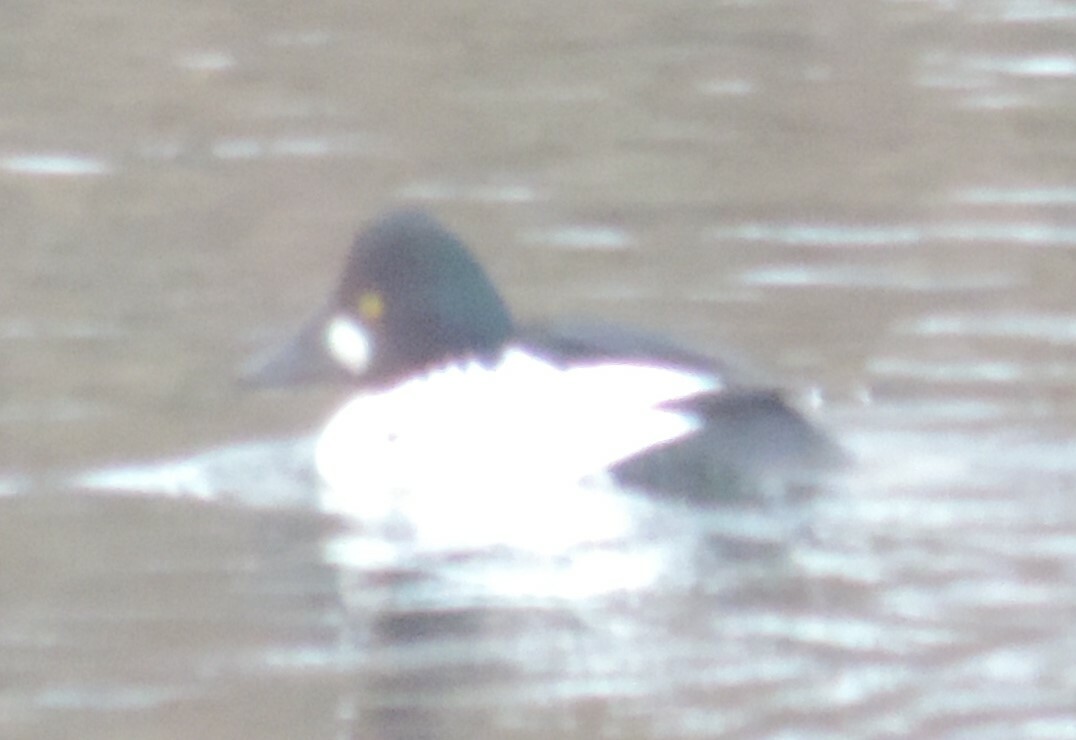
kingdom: Animalia
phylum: Chordata
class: Aves
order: Anseriformes
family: Anatidae
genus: Bucephala
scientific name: Bucephala clangula
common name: Common goldeneye
